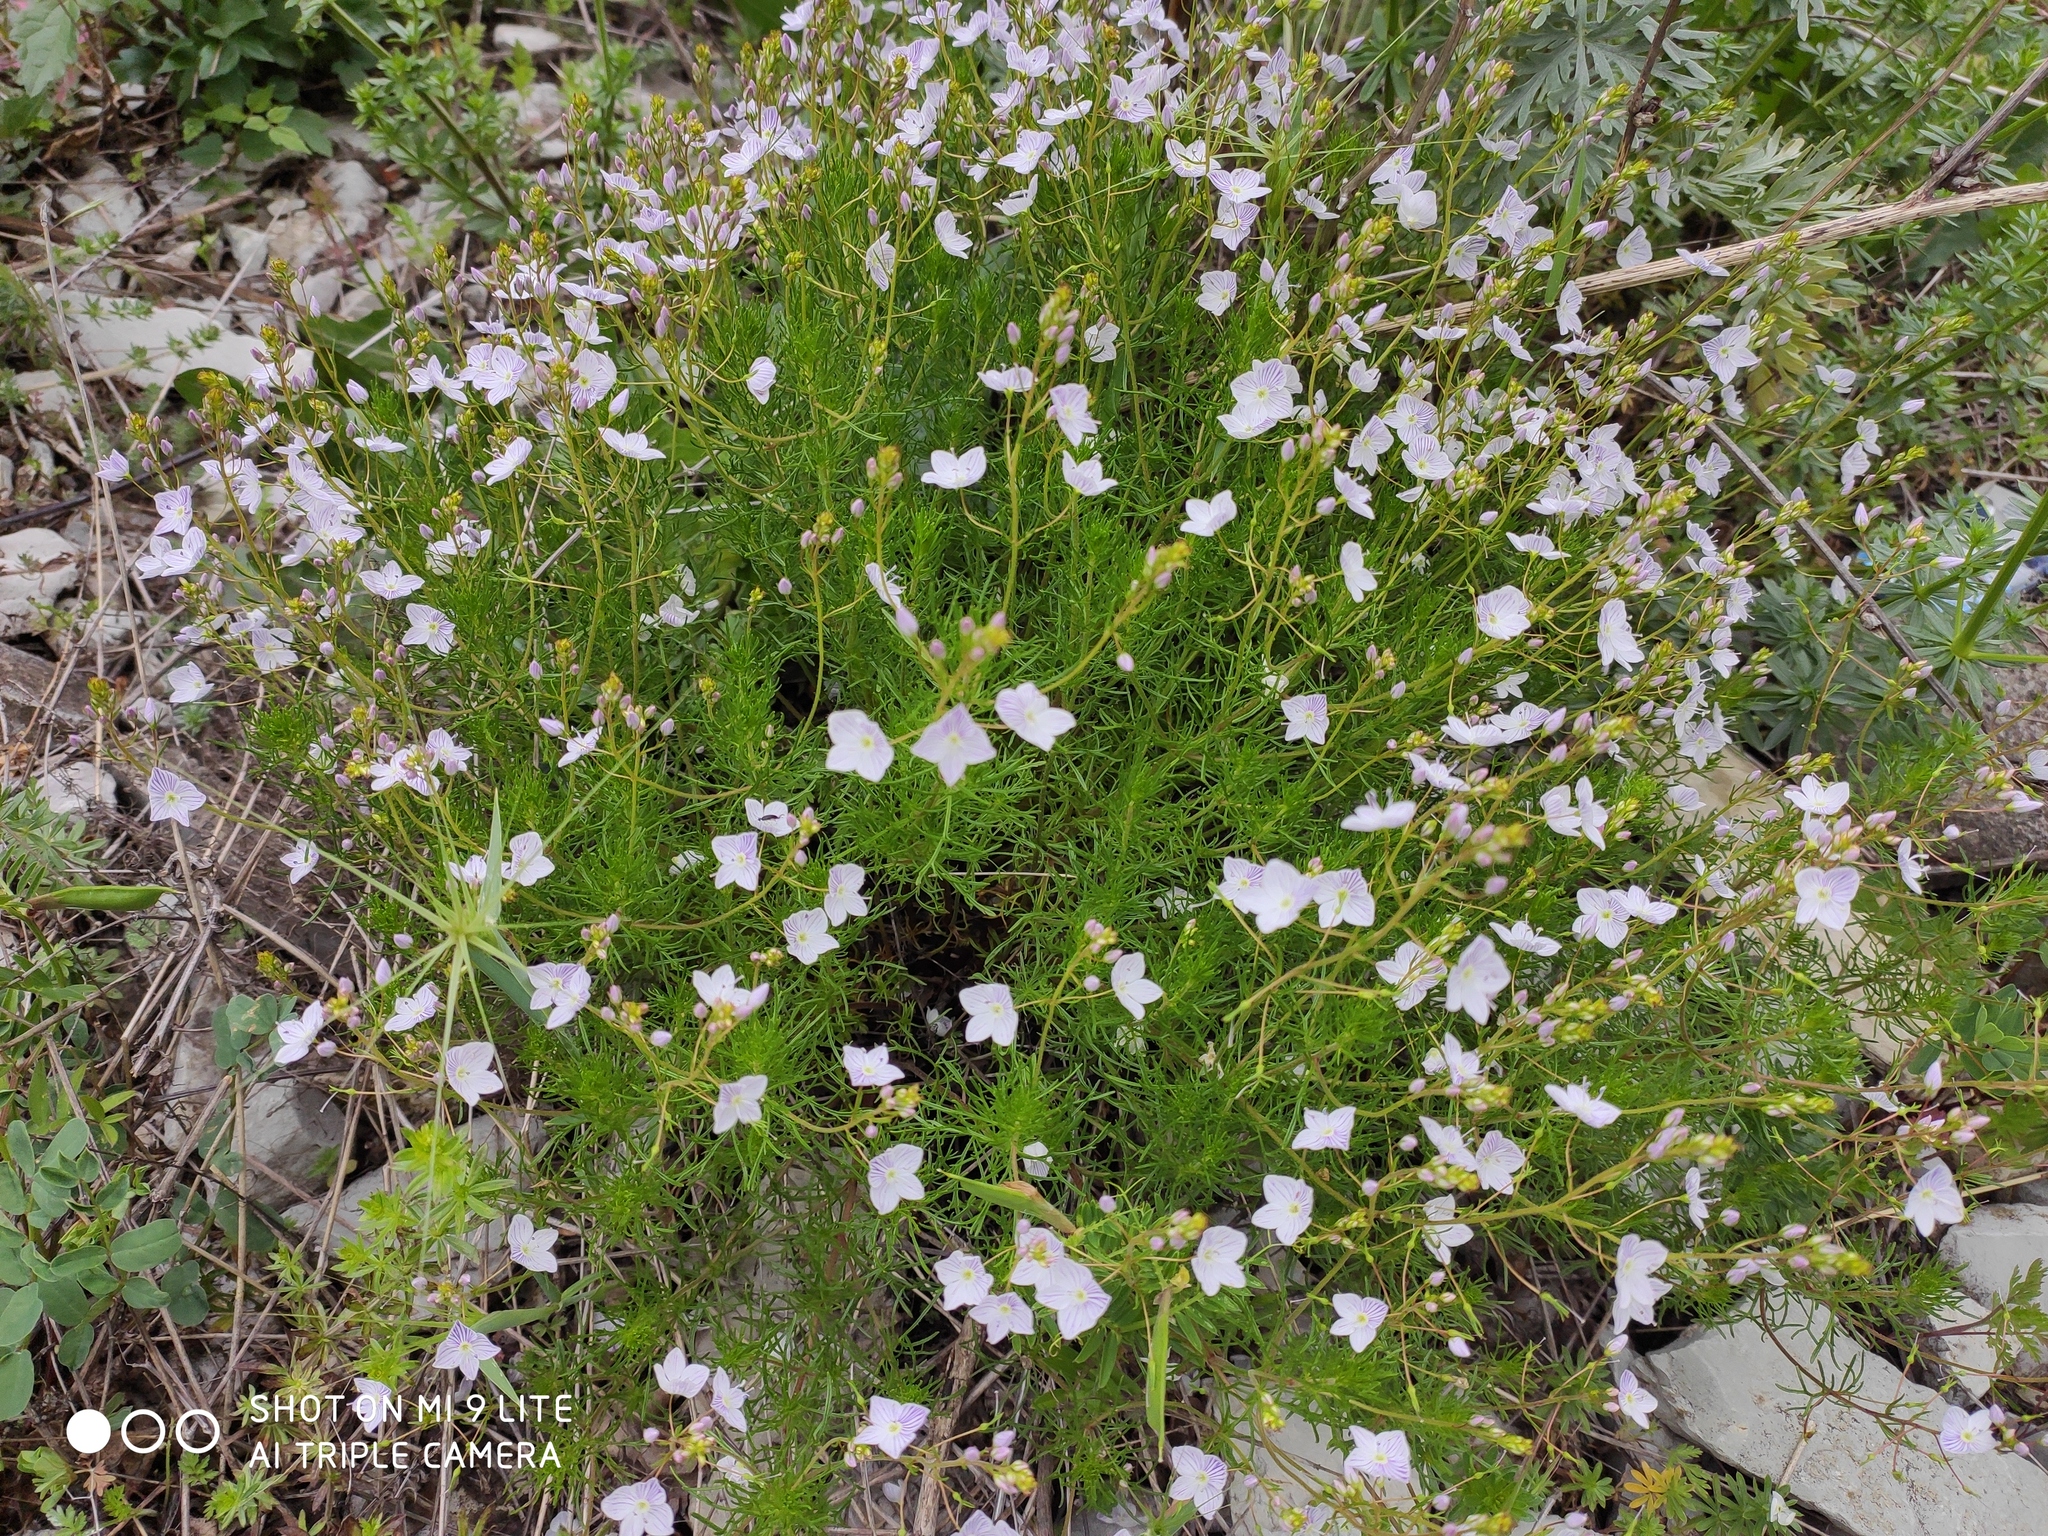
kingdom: Plantae
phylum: Tracheophyta
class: Magnoliopsida
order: Lamiales
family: Plantaginaceae
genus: Veronica
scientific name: Veronica filifolia
